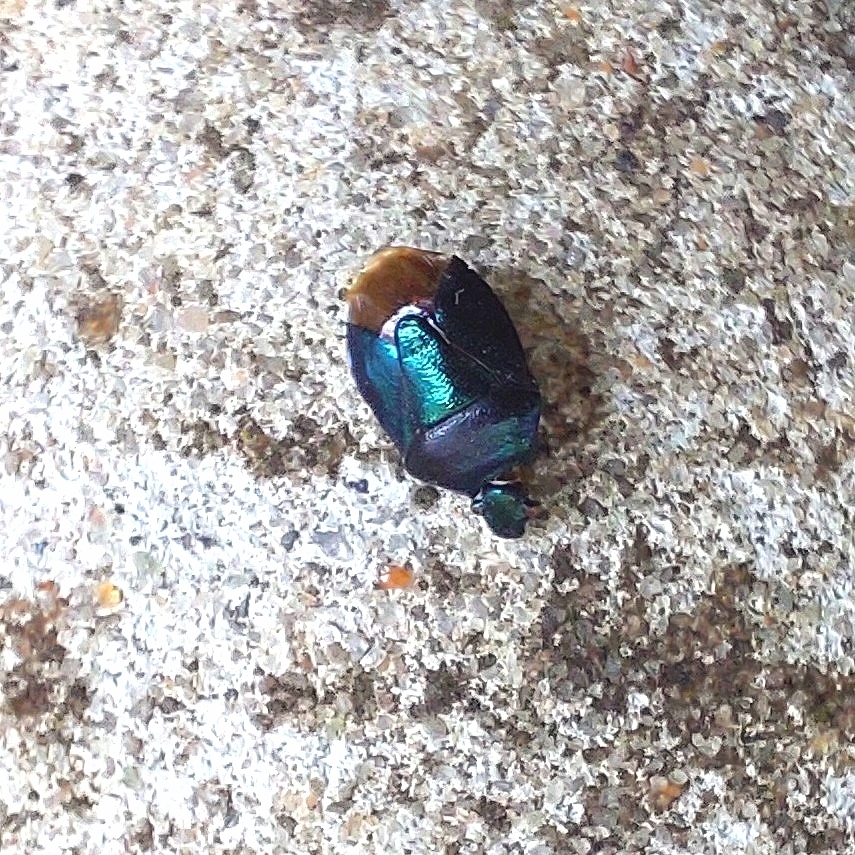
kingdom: Animalia
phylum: Arthropoda
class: Insecta
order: Hemiptera
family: Pentatomidae
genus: Zicrona
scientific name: Zicrona caerulea
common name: Blue shieldbug
